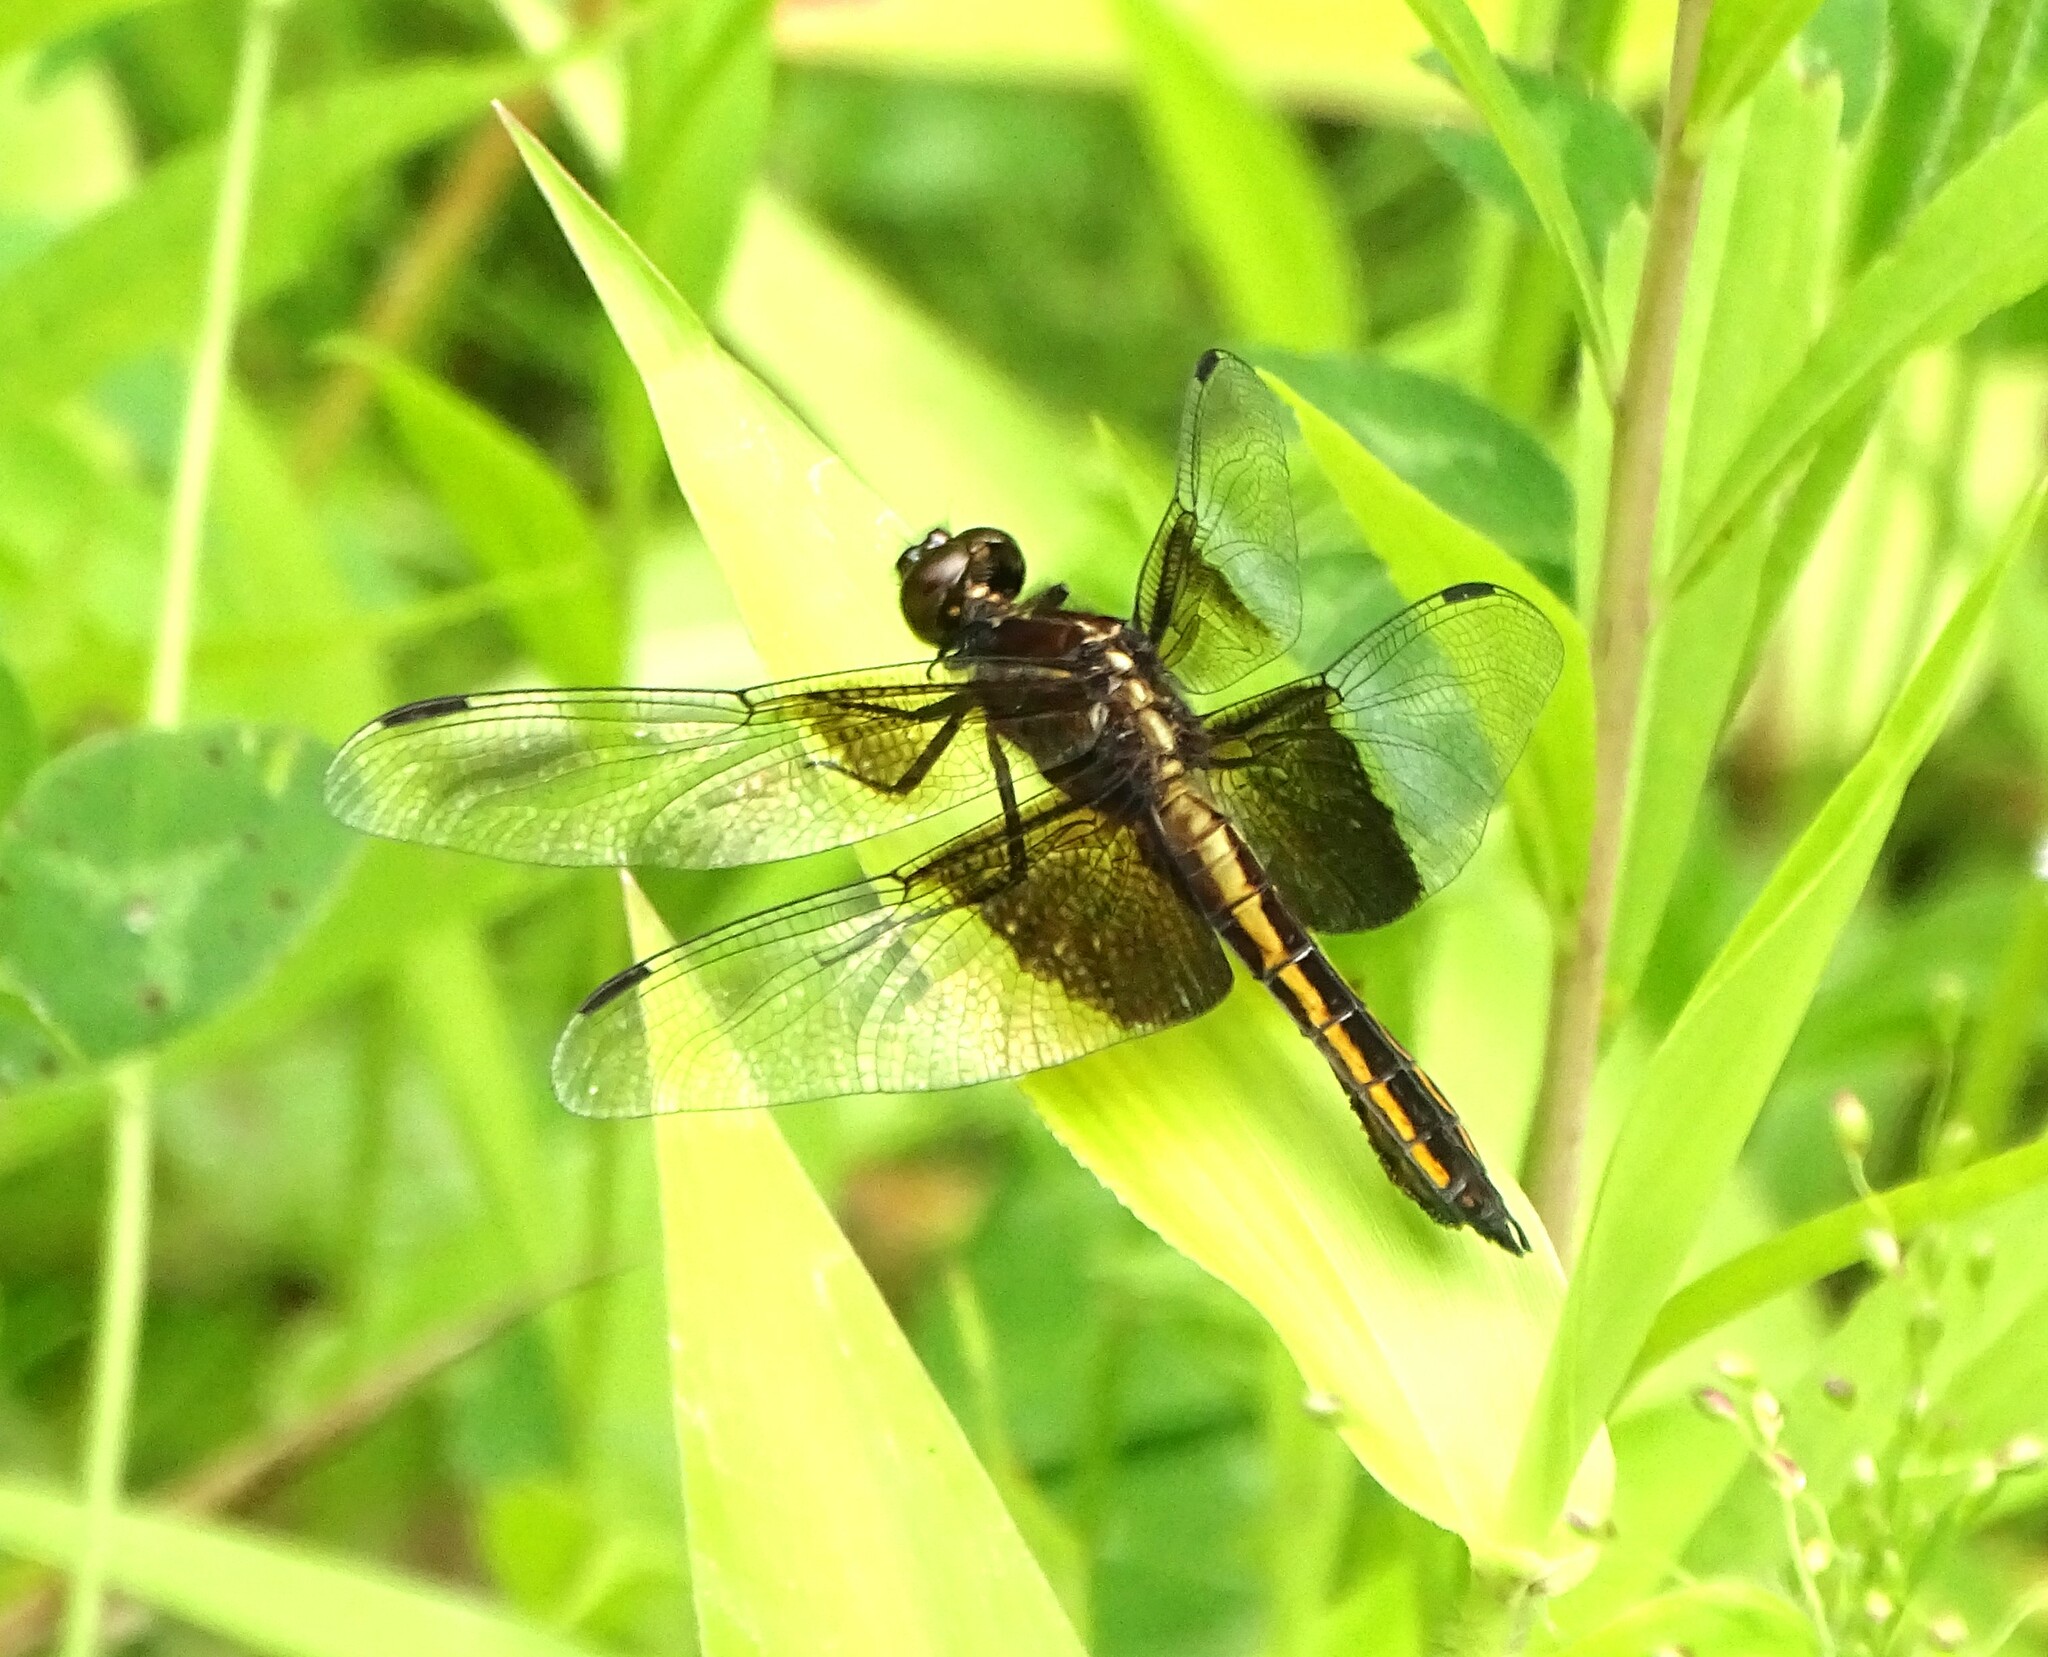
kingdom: Animalia
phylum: Arthropoda
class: Insecta
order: Odonata
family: Libellulidae
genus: Libellula
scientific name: Libellula luctuosa
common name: Widow skimmer
